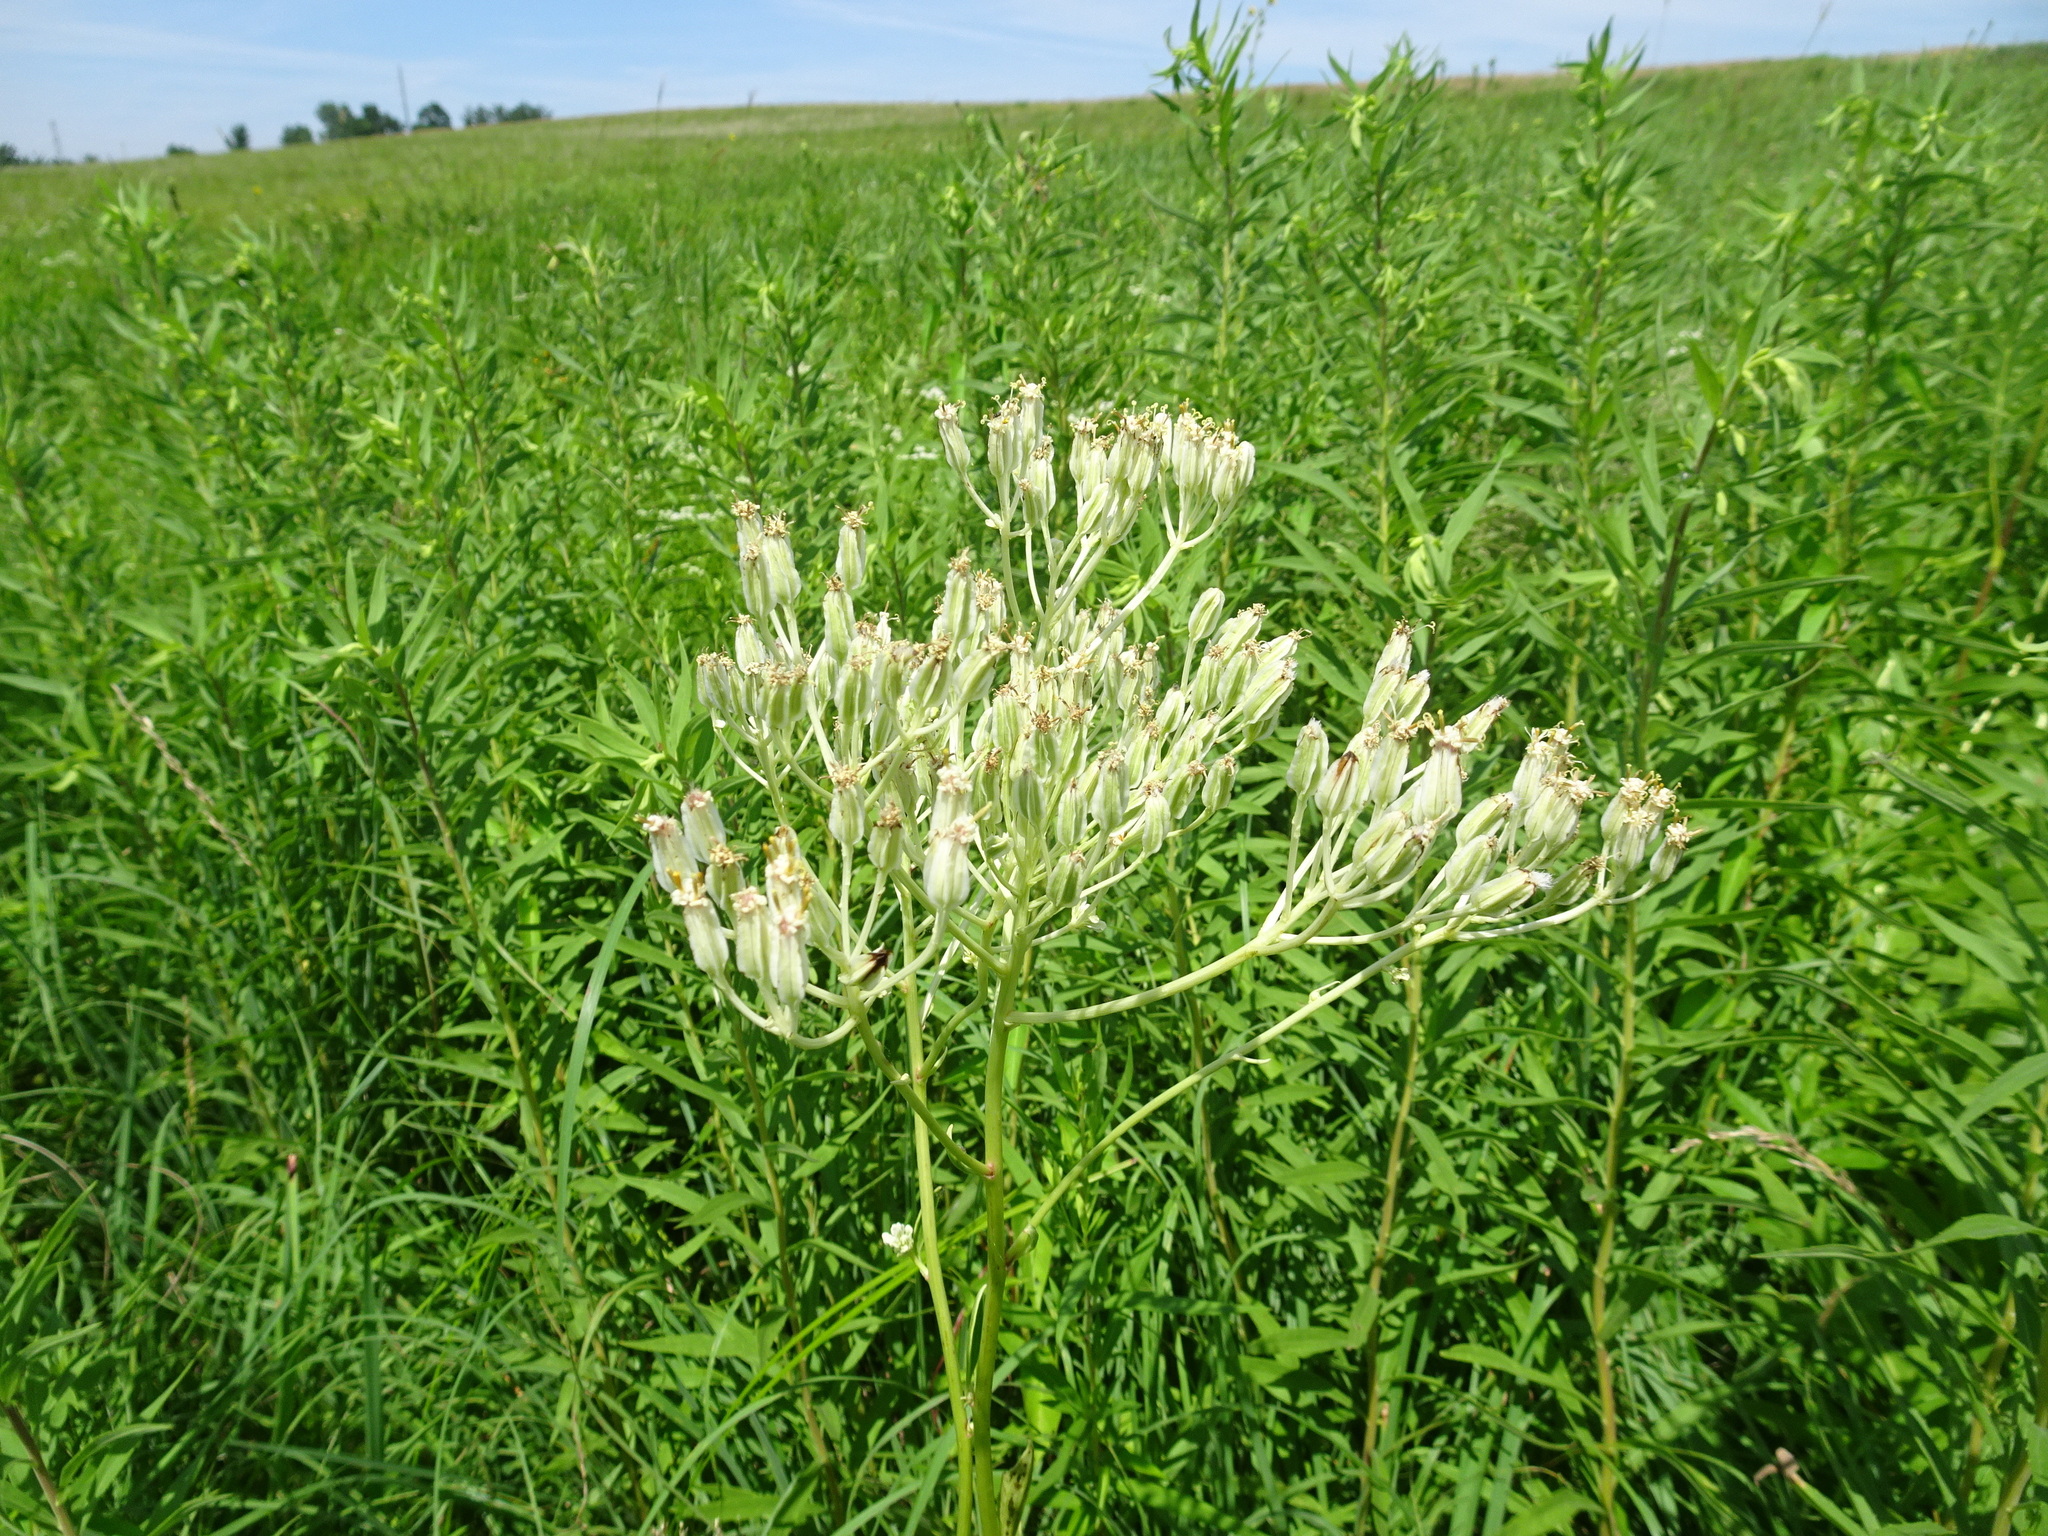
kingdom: Plantae
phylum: Tracheophyta
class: Magnoliopsida
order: Asterales
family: Asteraceae
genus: Arnoglossum
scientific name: Arnoglossum plantagineum
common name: Groove-stemmed indian-plantain
